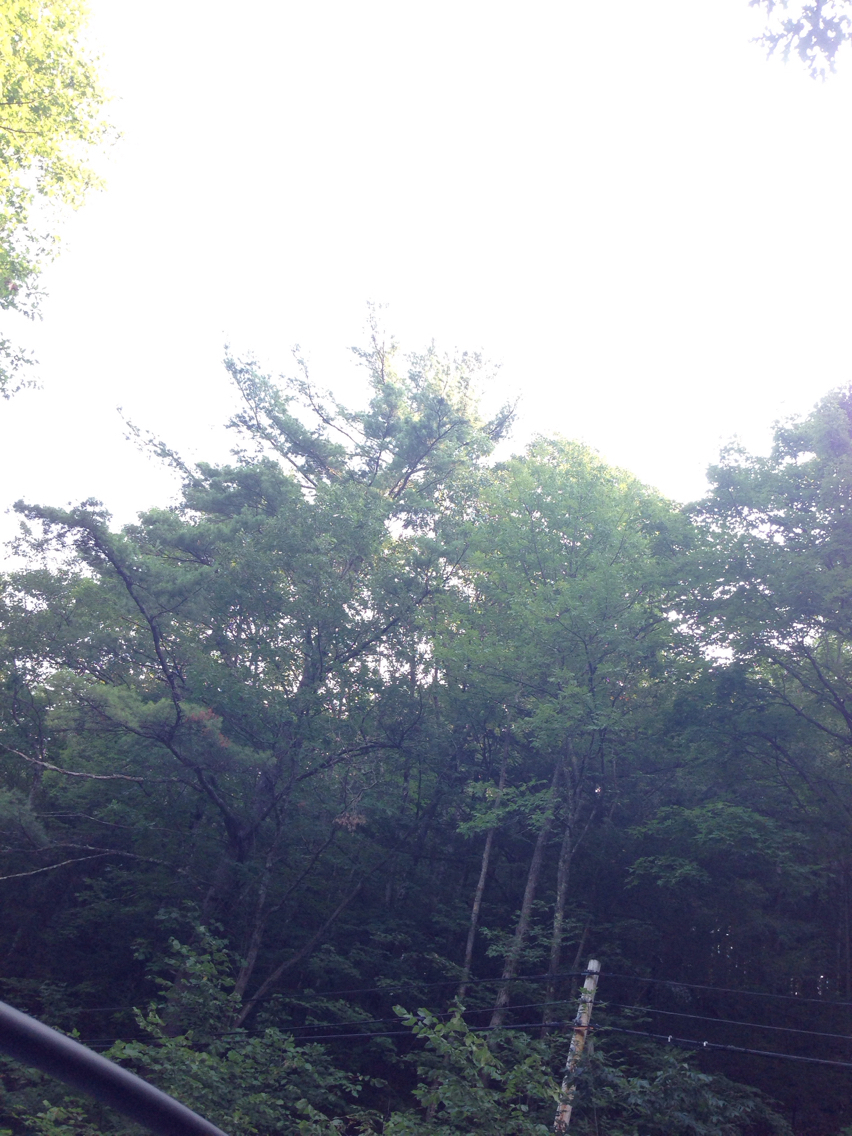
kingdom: Plantae
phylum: Tracheophyta
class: Pinopsida
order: Pinales
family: Pinaceae
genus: Pinus
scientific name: Pinus strobus
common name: Weymouth pine
